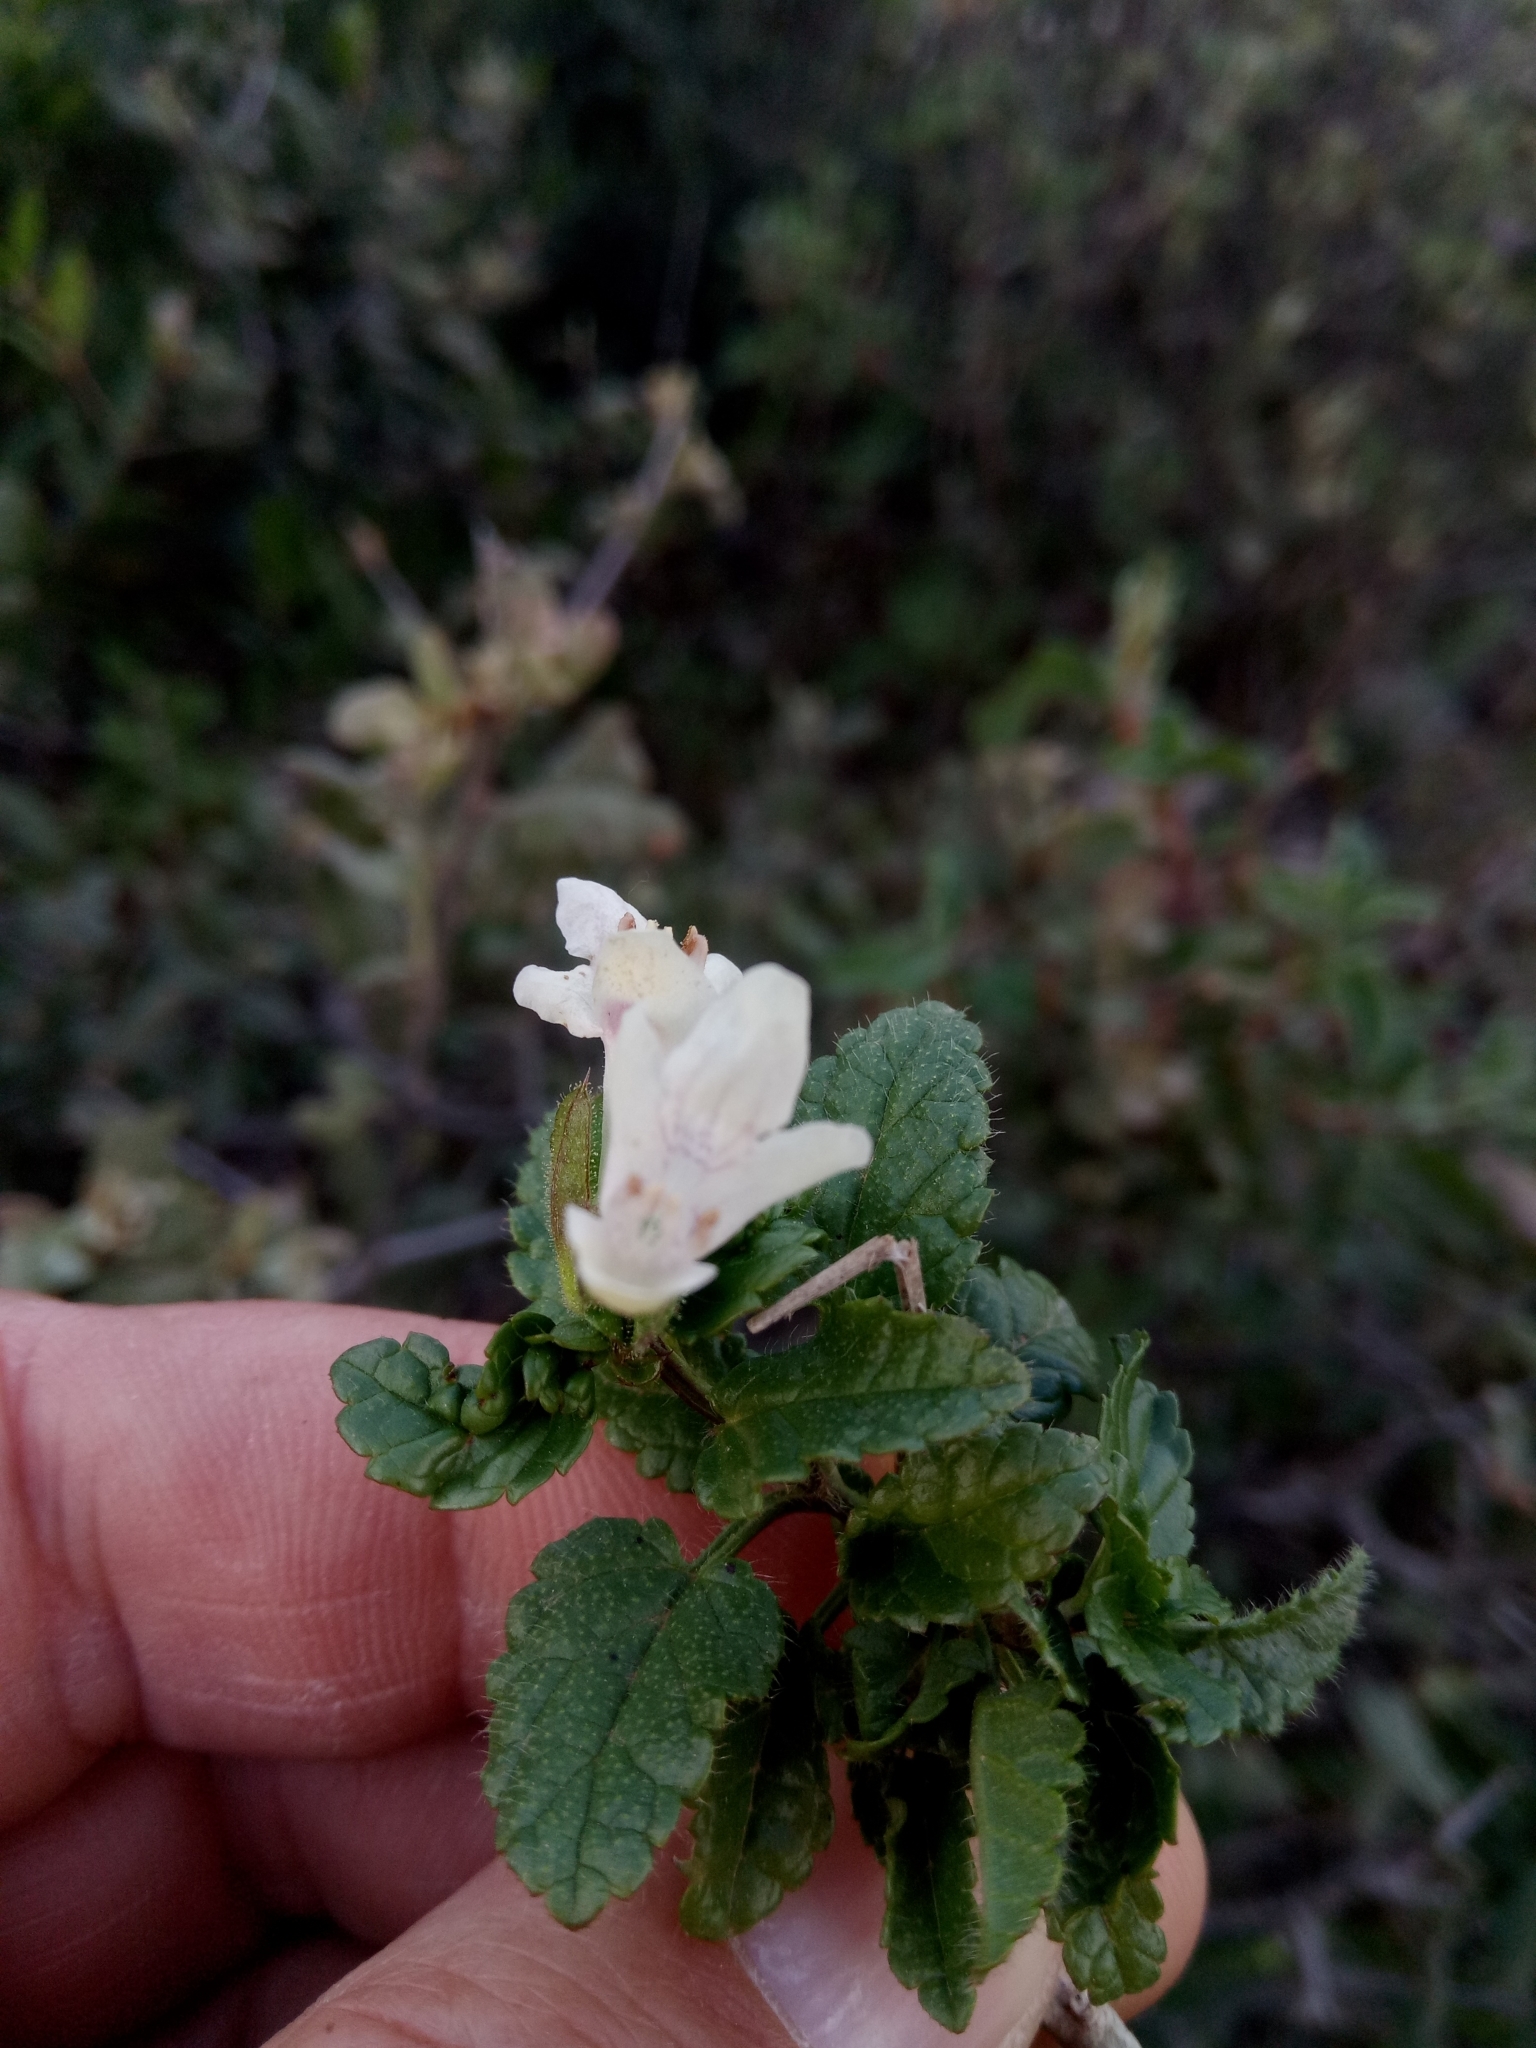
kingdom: Plantae
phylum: Tracheophyta
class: Magnoliopsida
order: Lamiales
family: Lamiaceae
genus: Prasium
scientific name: Prasium majus
